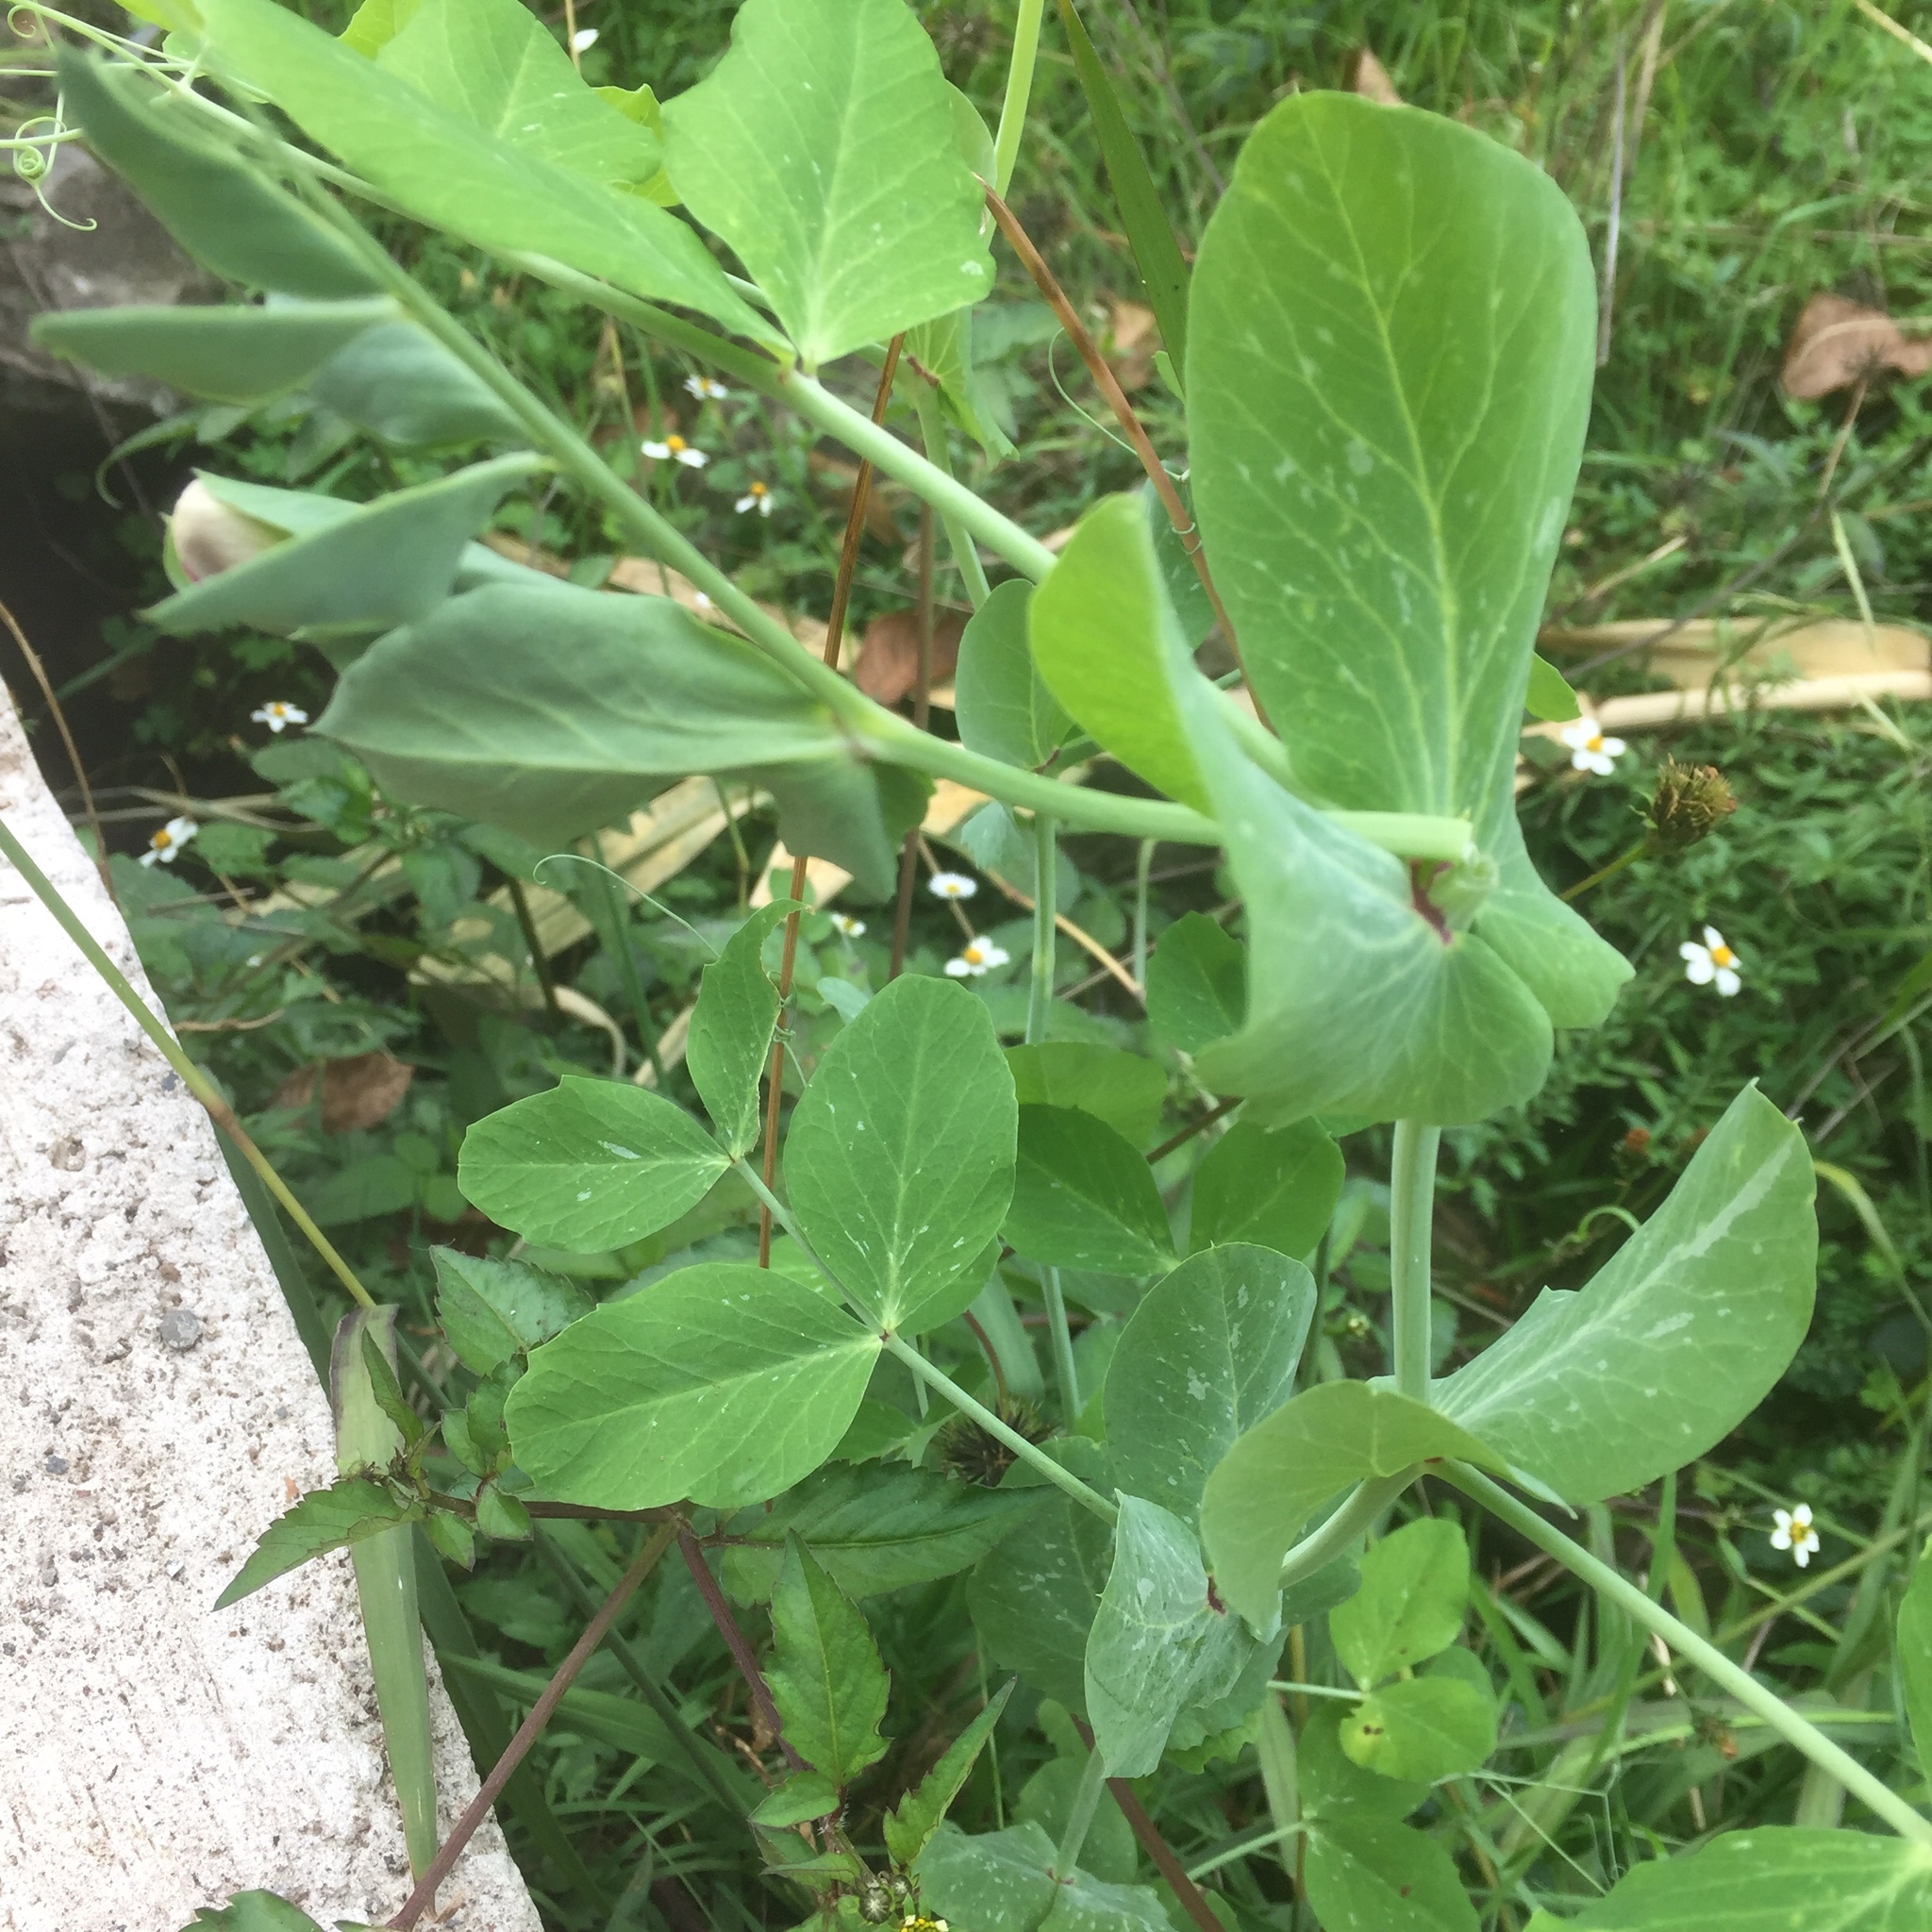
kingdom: Plantae
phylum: Tracheophyta
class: Magnoliopsida
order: Fabales
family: Fabaceae
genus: Lathyrus
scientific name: Lathyrus oleraceus
